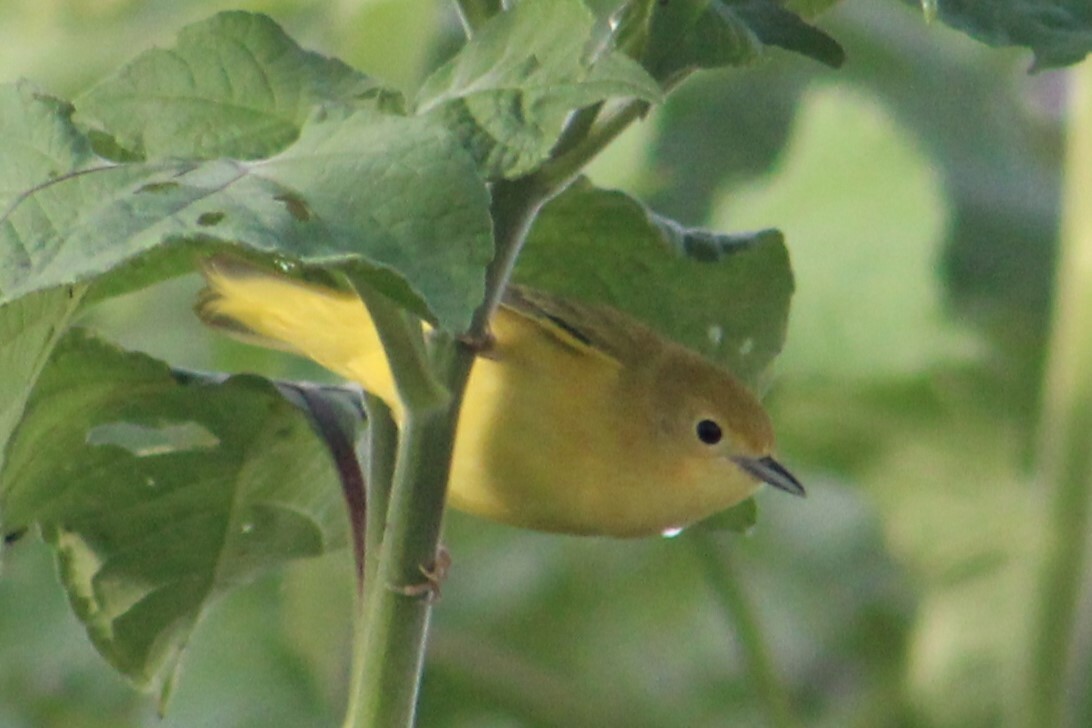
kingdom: Animalia
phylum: Chordata
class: Aves
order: Passeriformes
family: Parulidae
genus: Setophaga
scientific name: Setophaga petechia
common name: Yellow warbler
